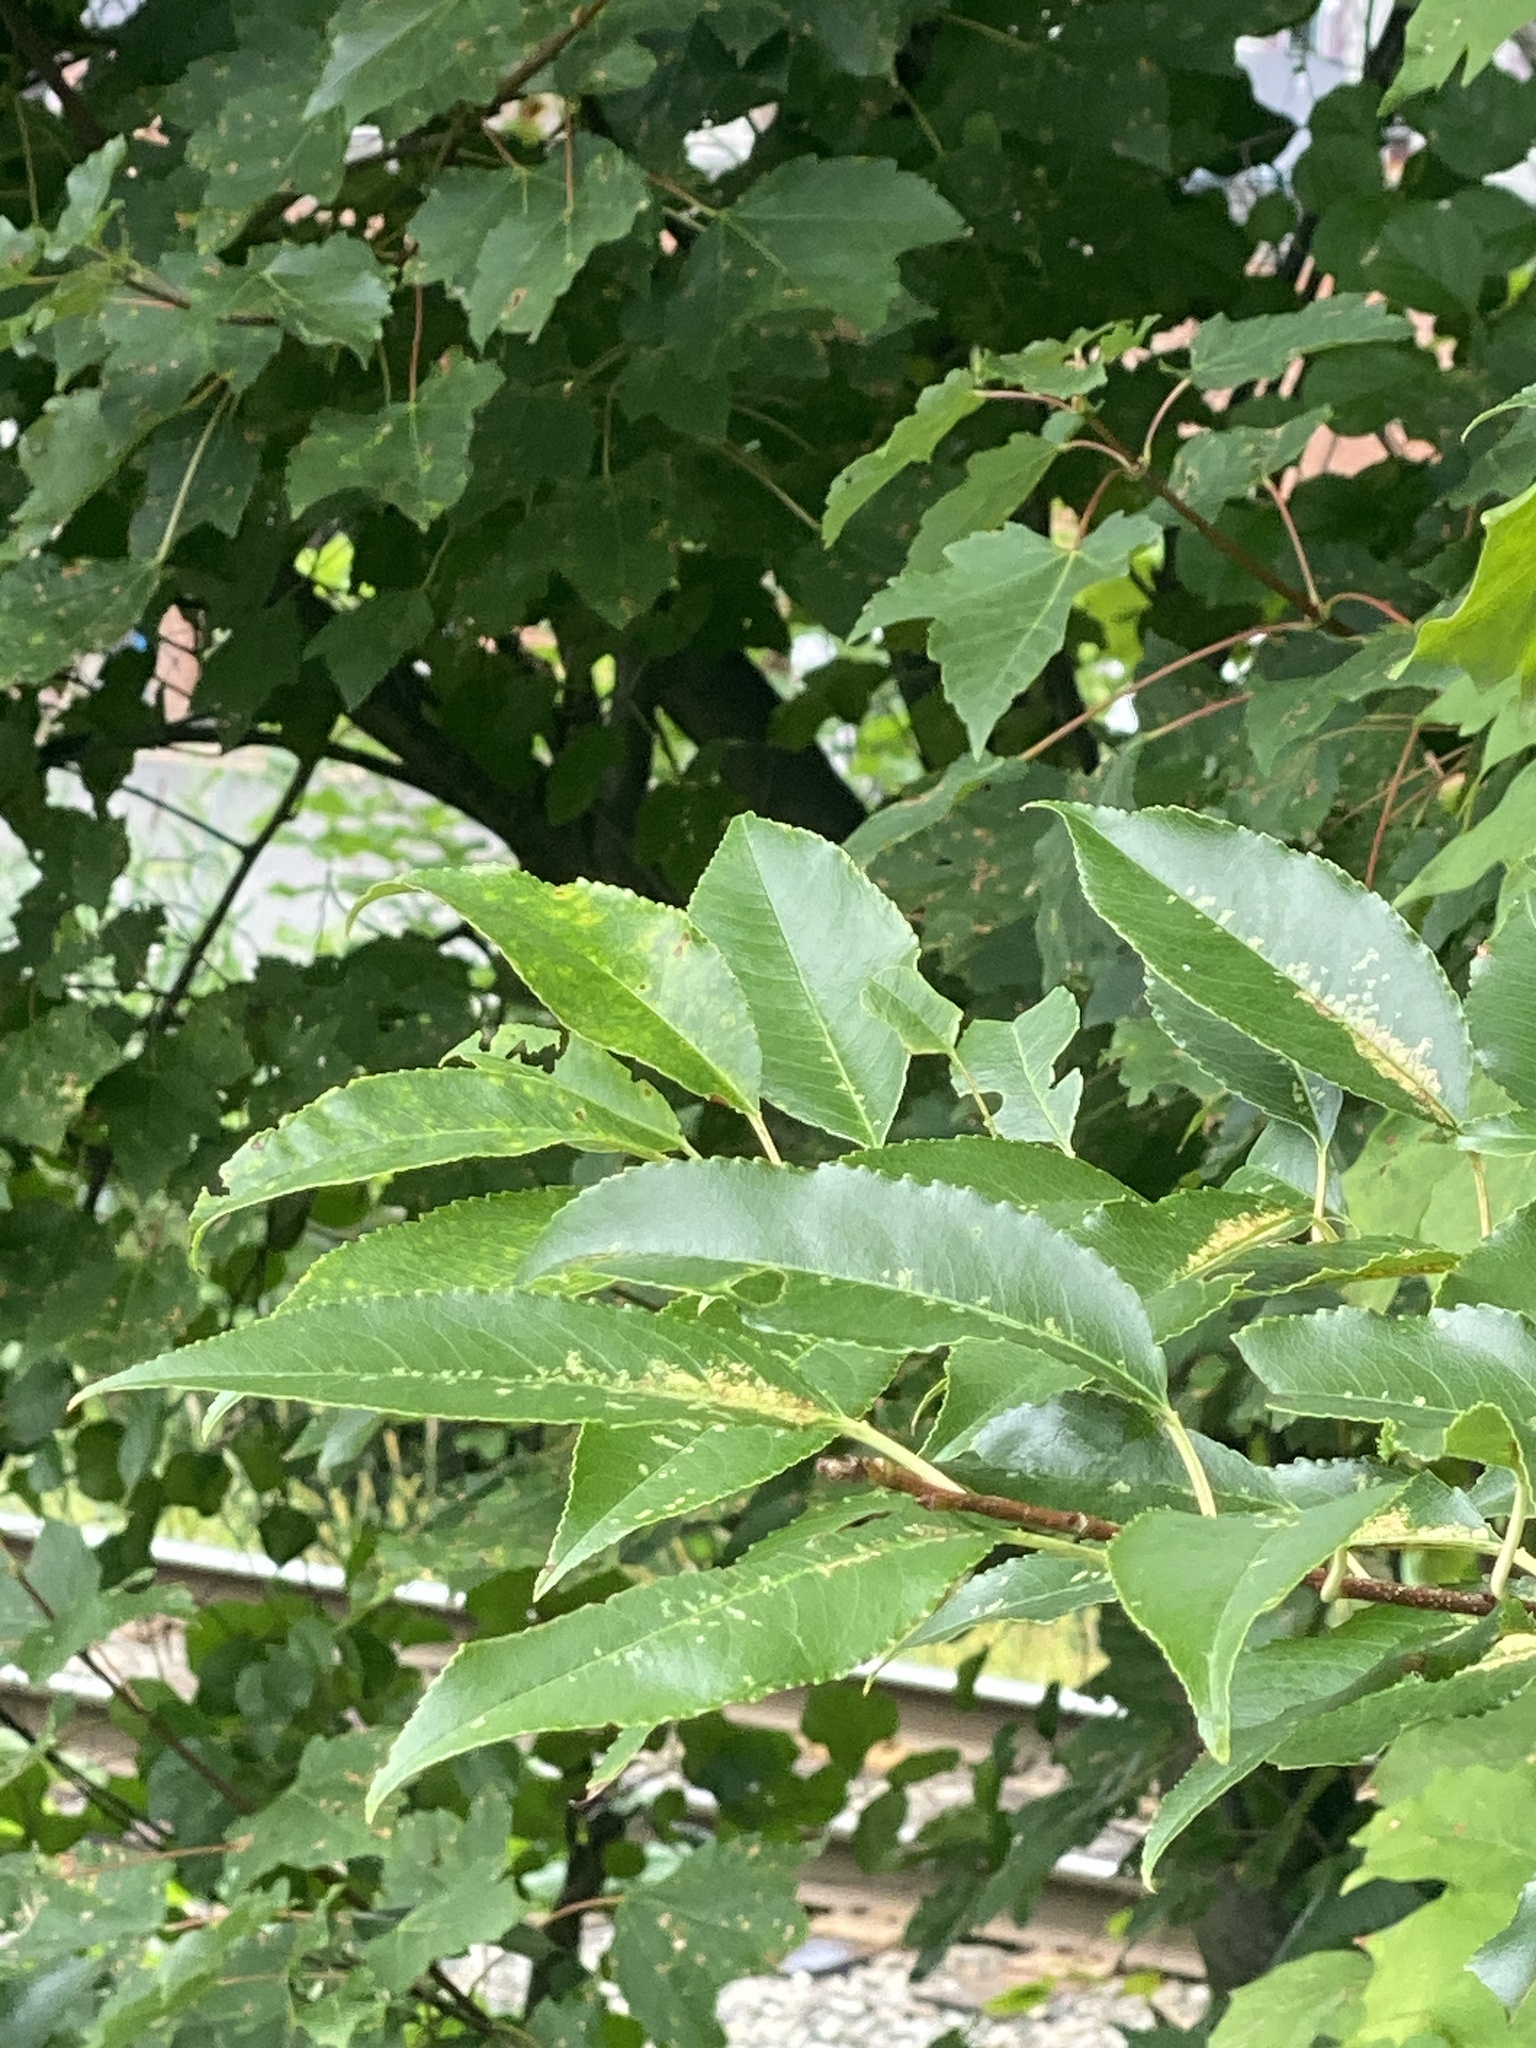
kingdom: Plantae
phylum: Tracheophyta
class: Magnoliopsida
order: Rosales
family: Rosaceae
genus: Prunus
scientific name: Prunus serotina
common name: Black cherry
